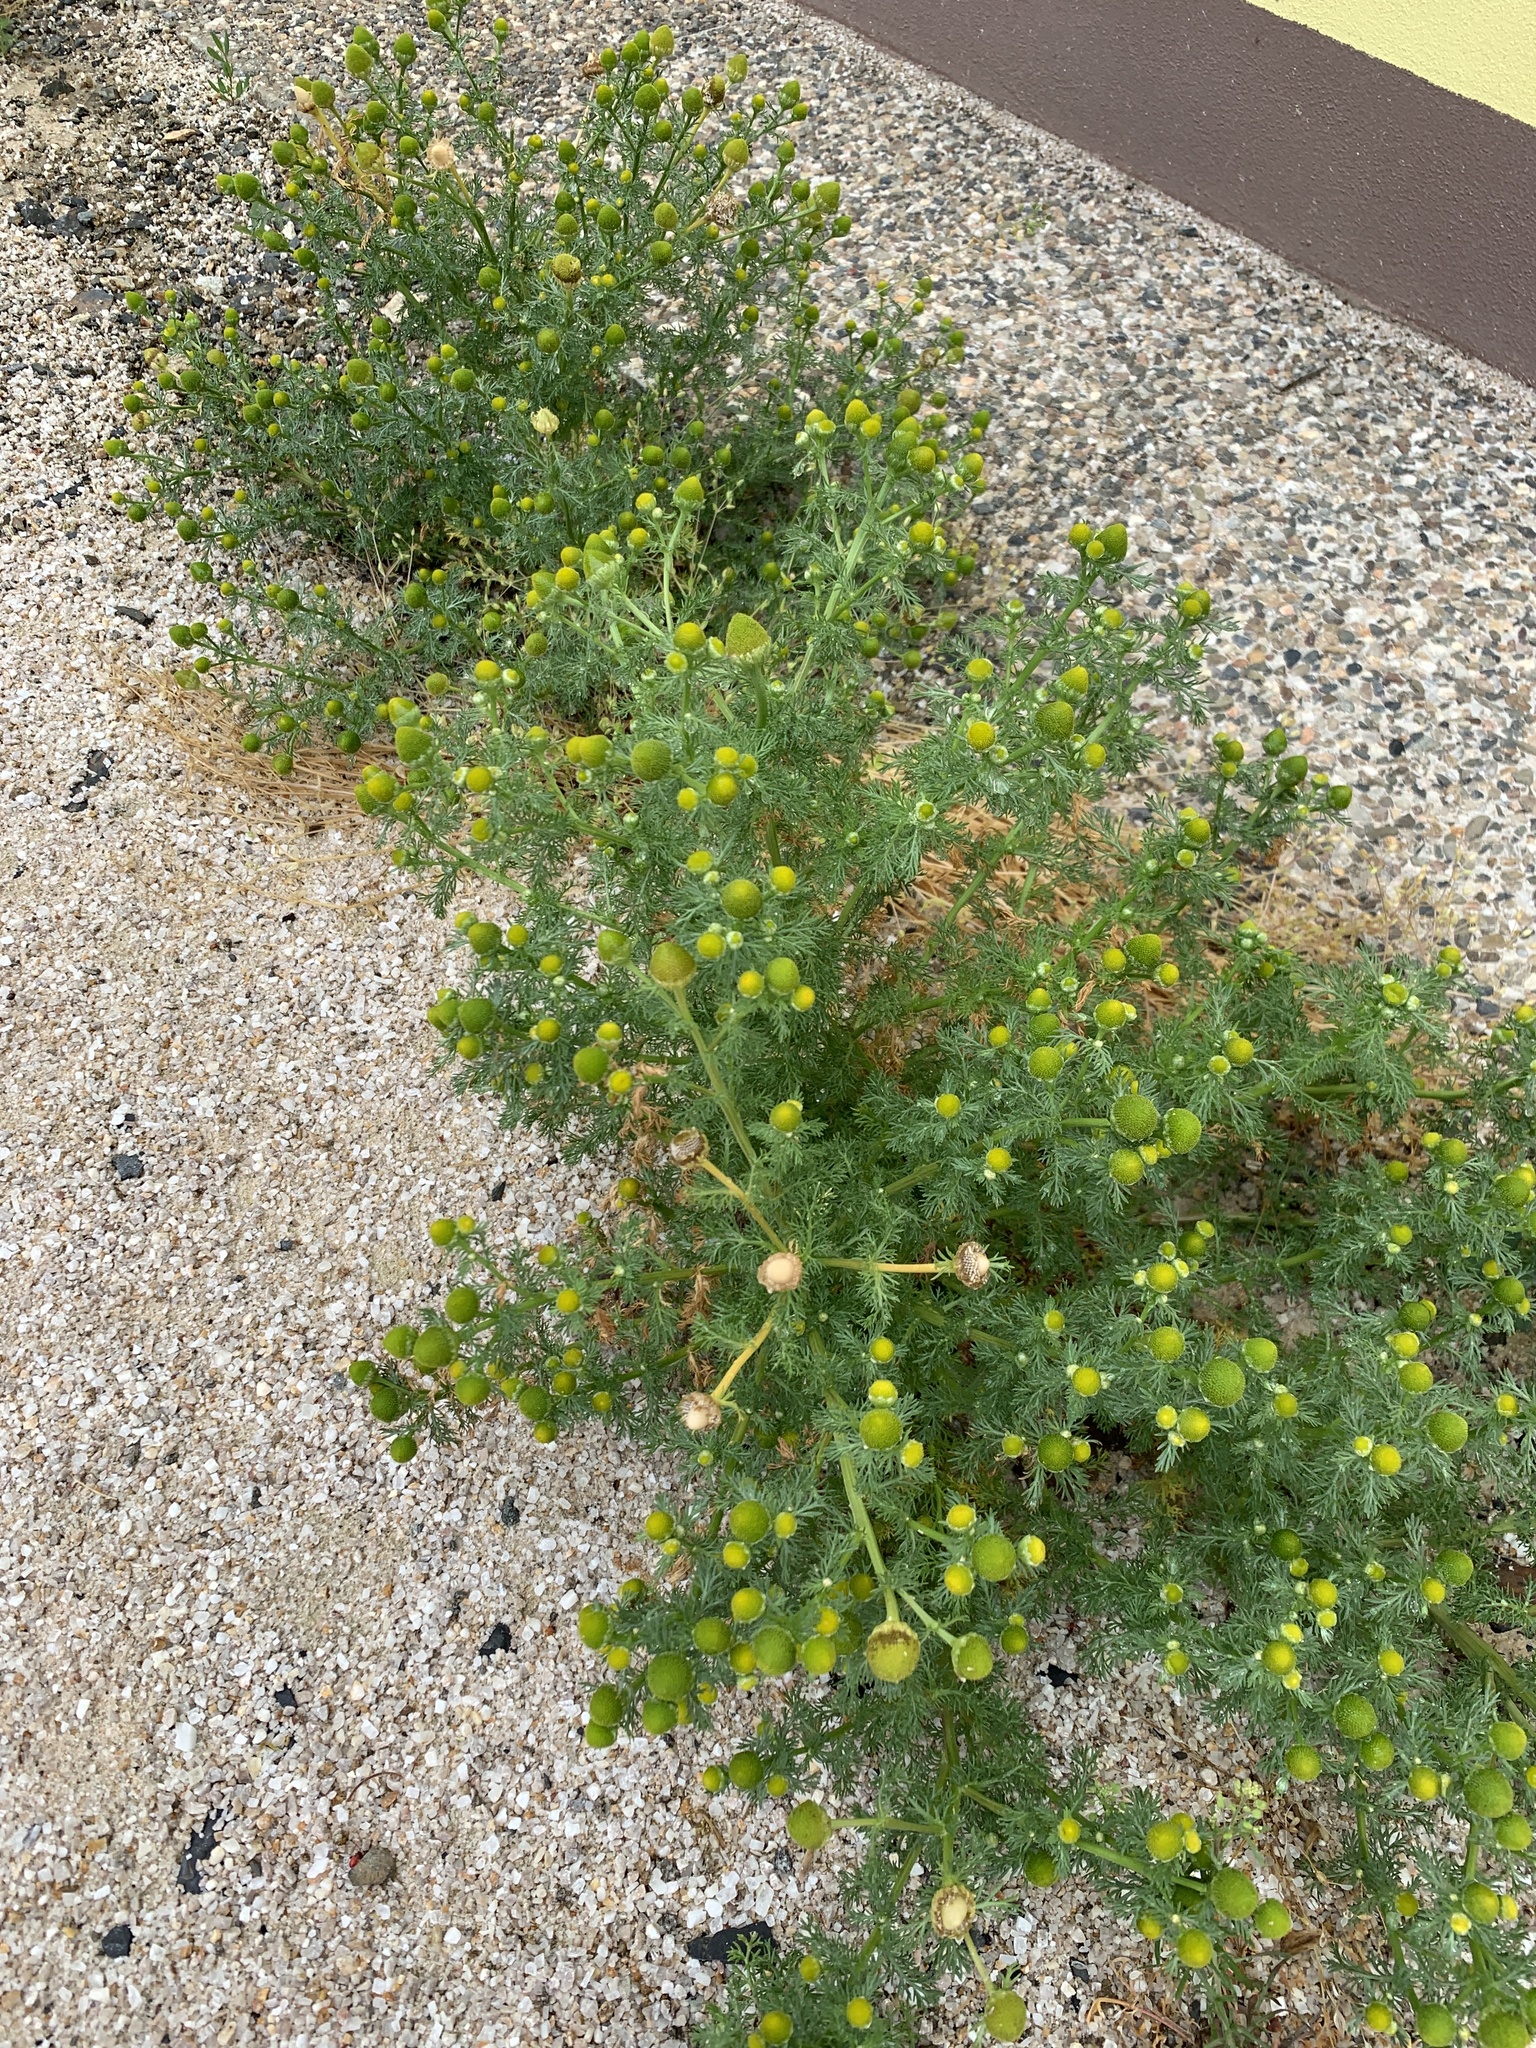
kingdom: Plantae
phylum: Tracheophyta
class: Magnoliopsida
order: Asterales
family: Asteraceae
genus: Matricaria
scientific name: Matricaria discoidea
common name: Disc mayweed
